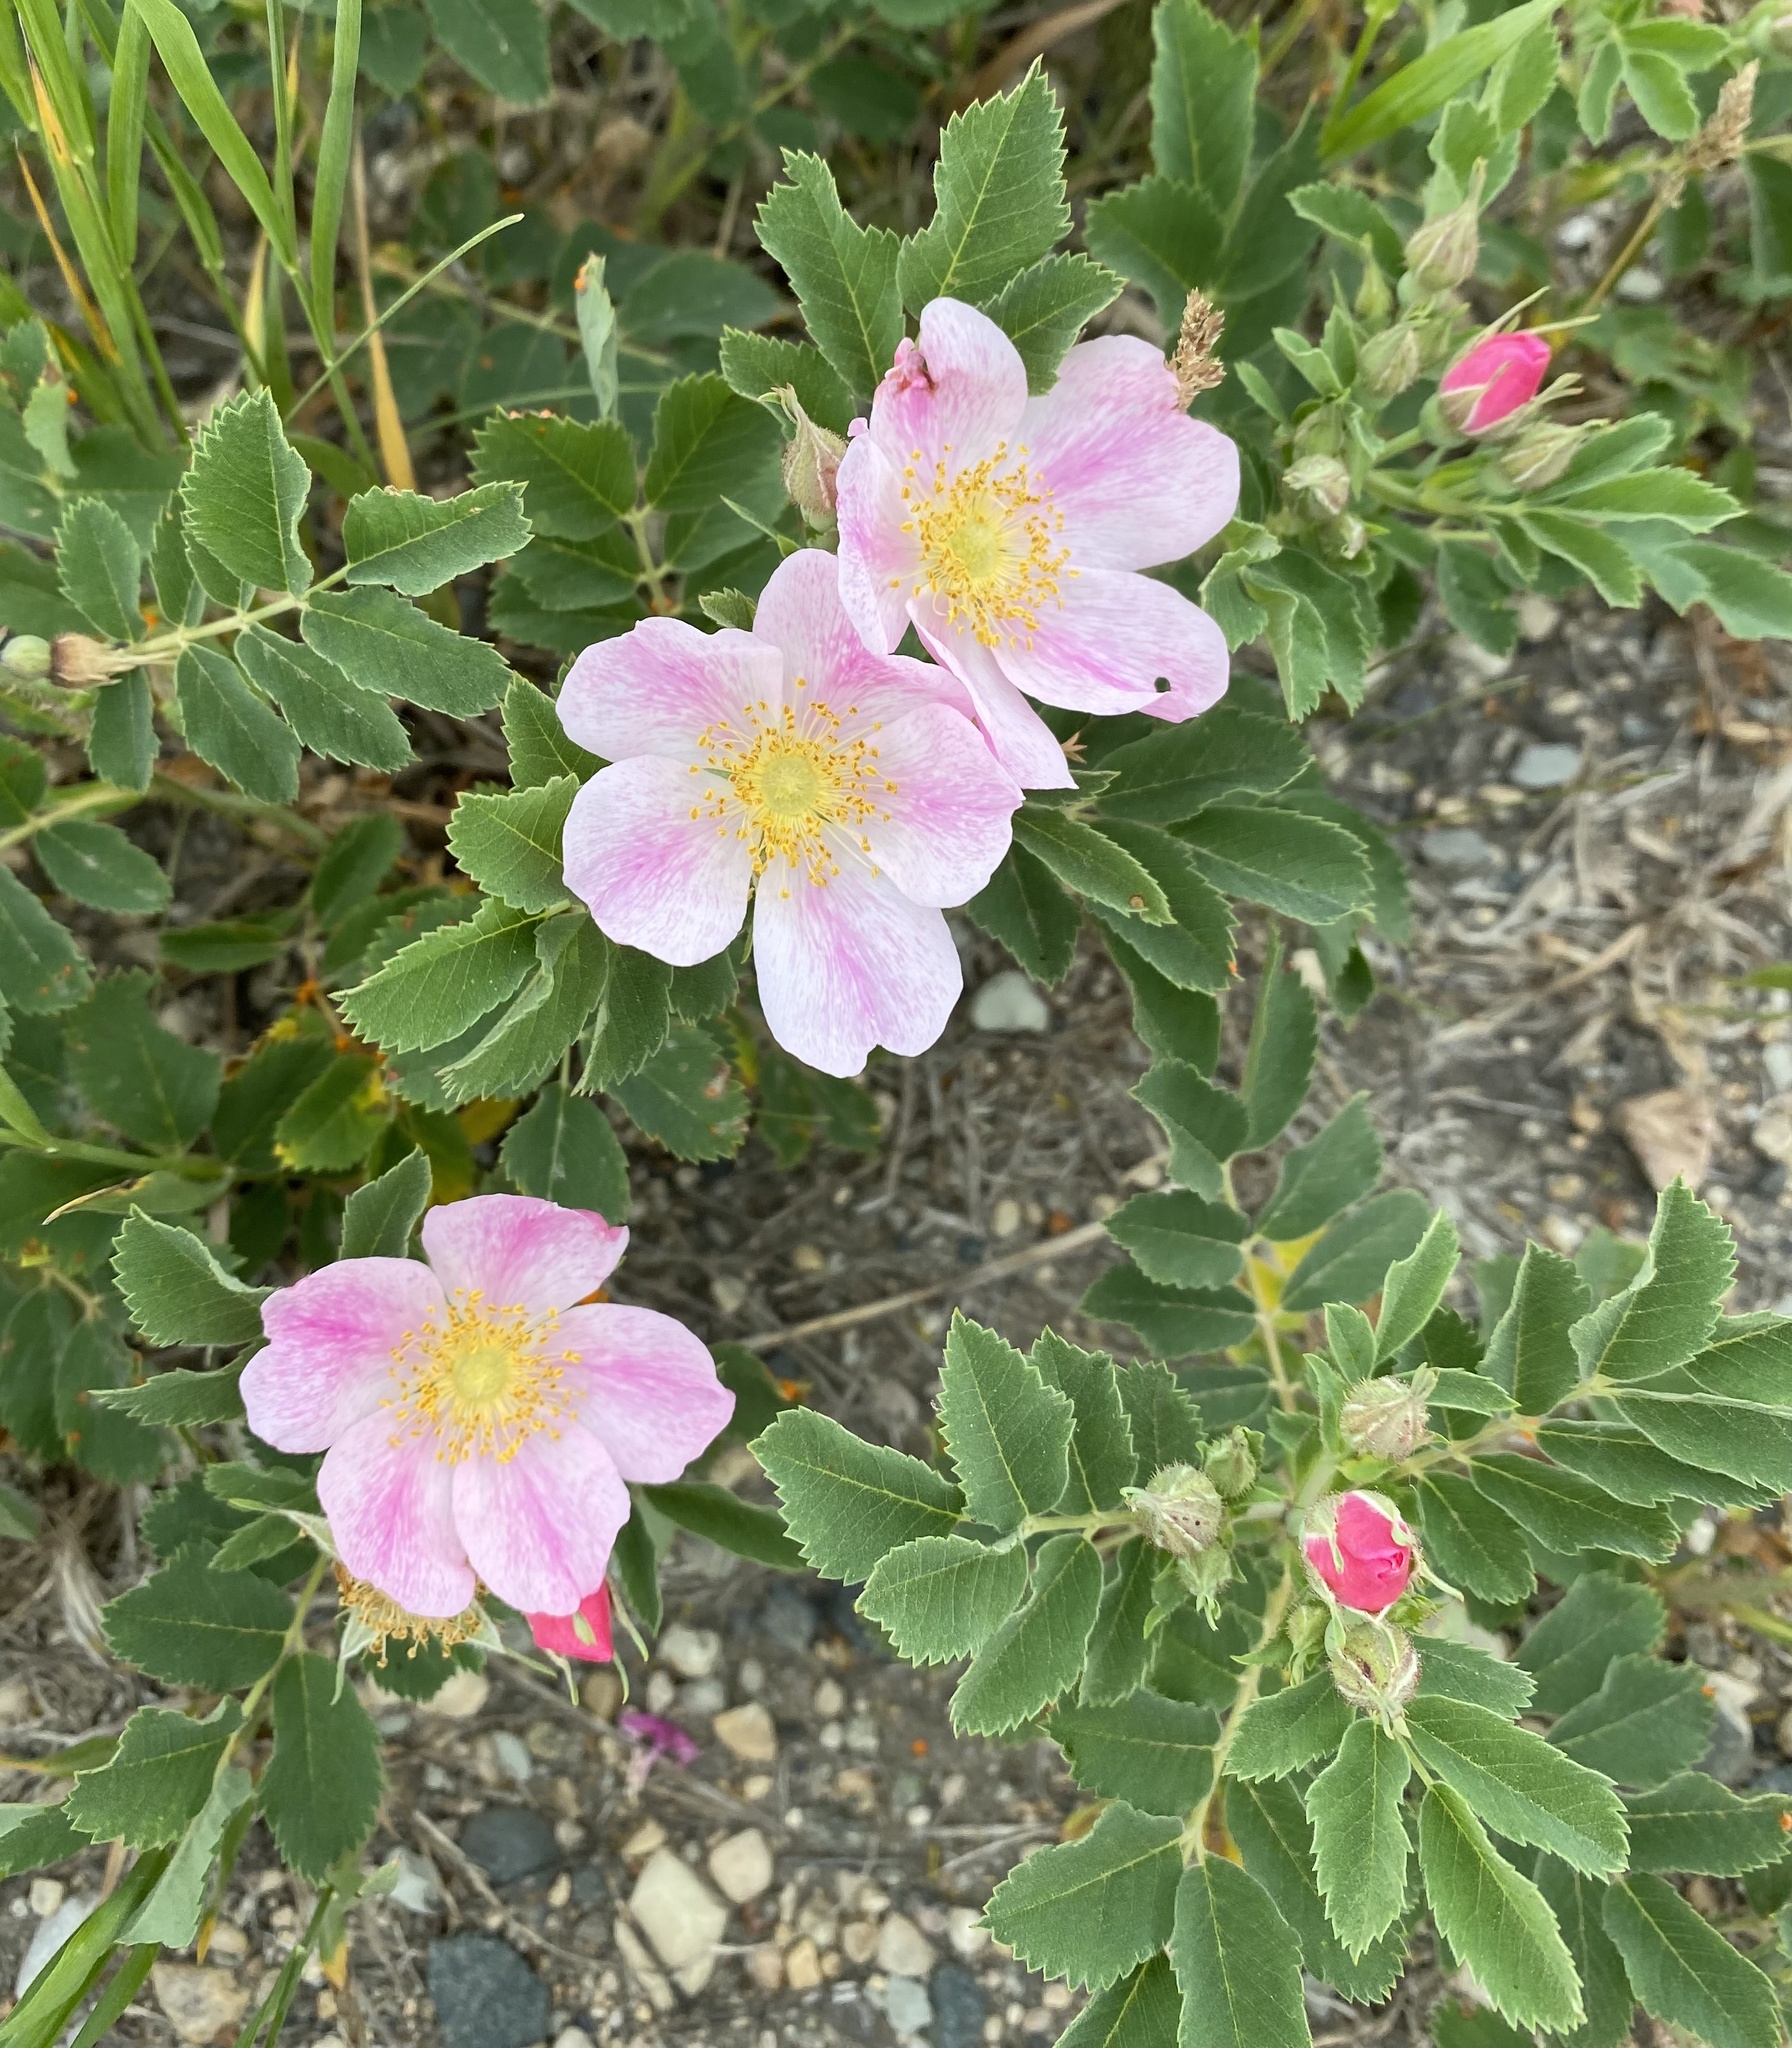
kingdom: Plantae
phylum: Tracheophyta
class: Magnoliopsida
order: Rosales
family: Rosaceae
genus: Rosa
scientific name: Rosa arkansana
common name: Prairie rose
